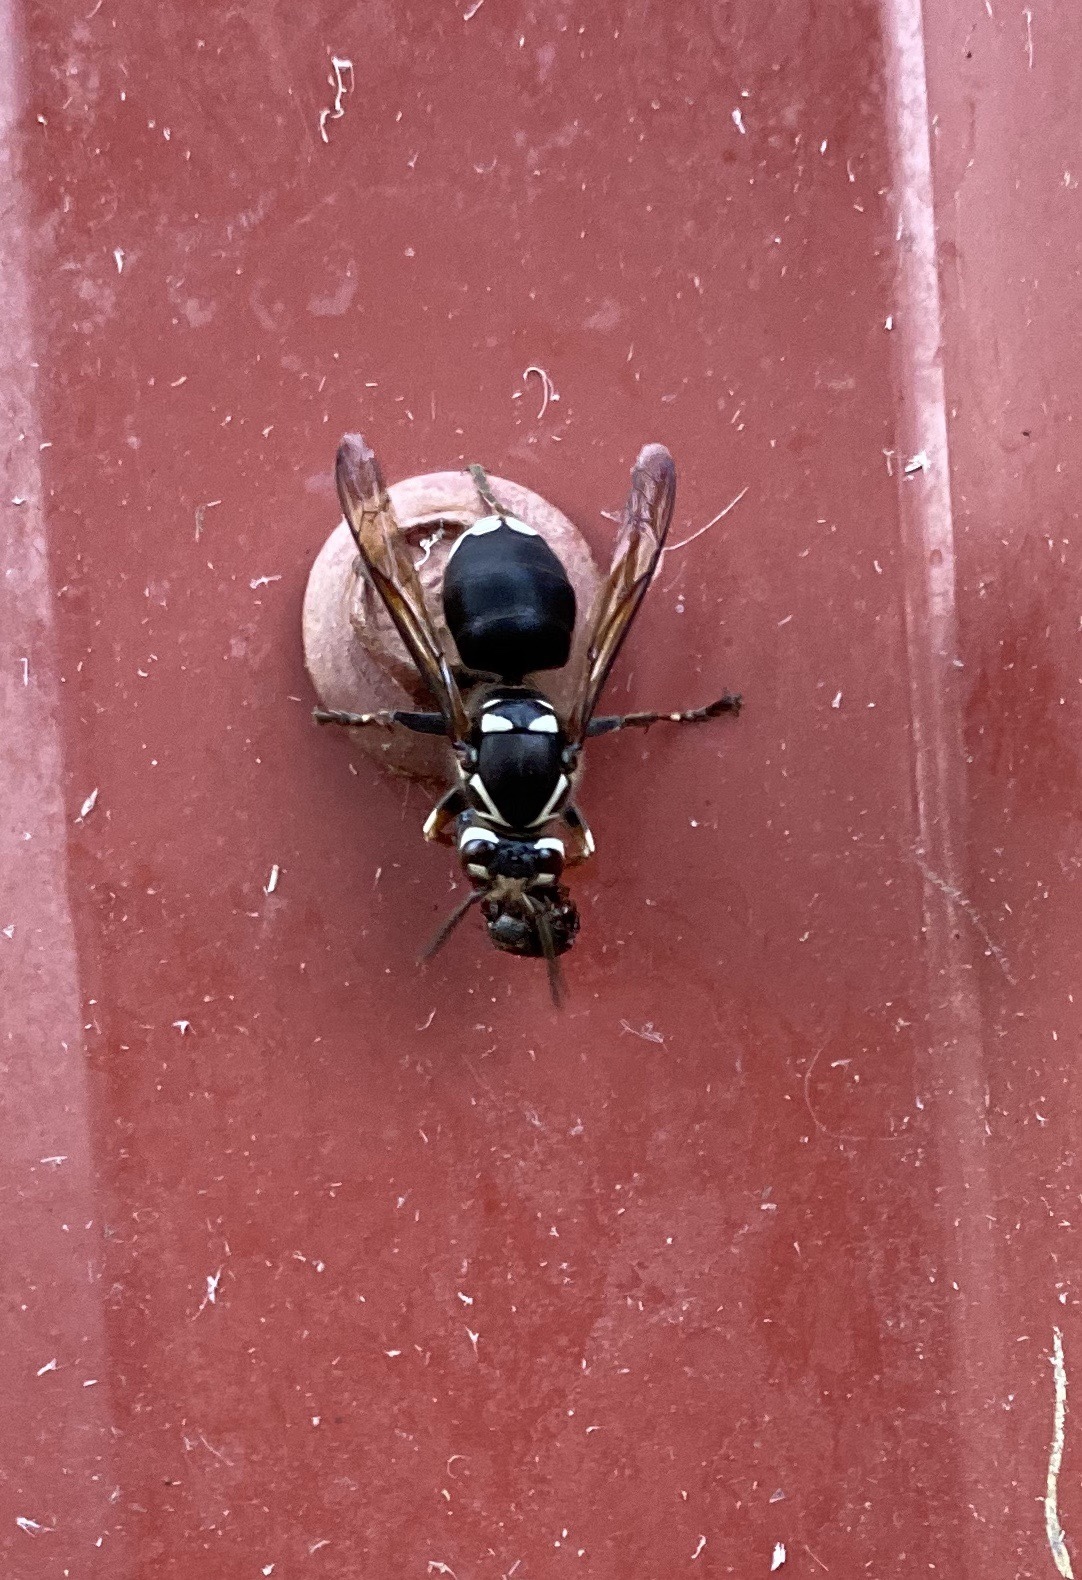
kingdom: Animalia
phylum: Arthropoda
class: Insecta
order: Hymenoptera
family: Vespidae
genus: Dolichovespula
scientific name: Dolichovespula maculata
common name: Bald-faced hornet
